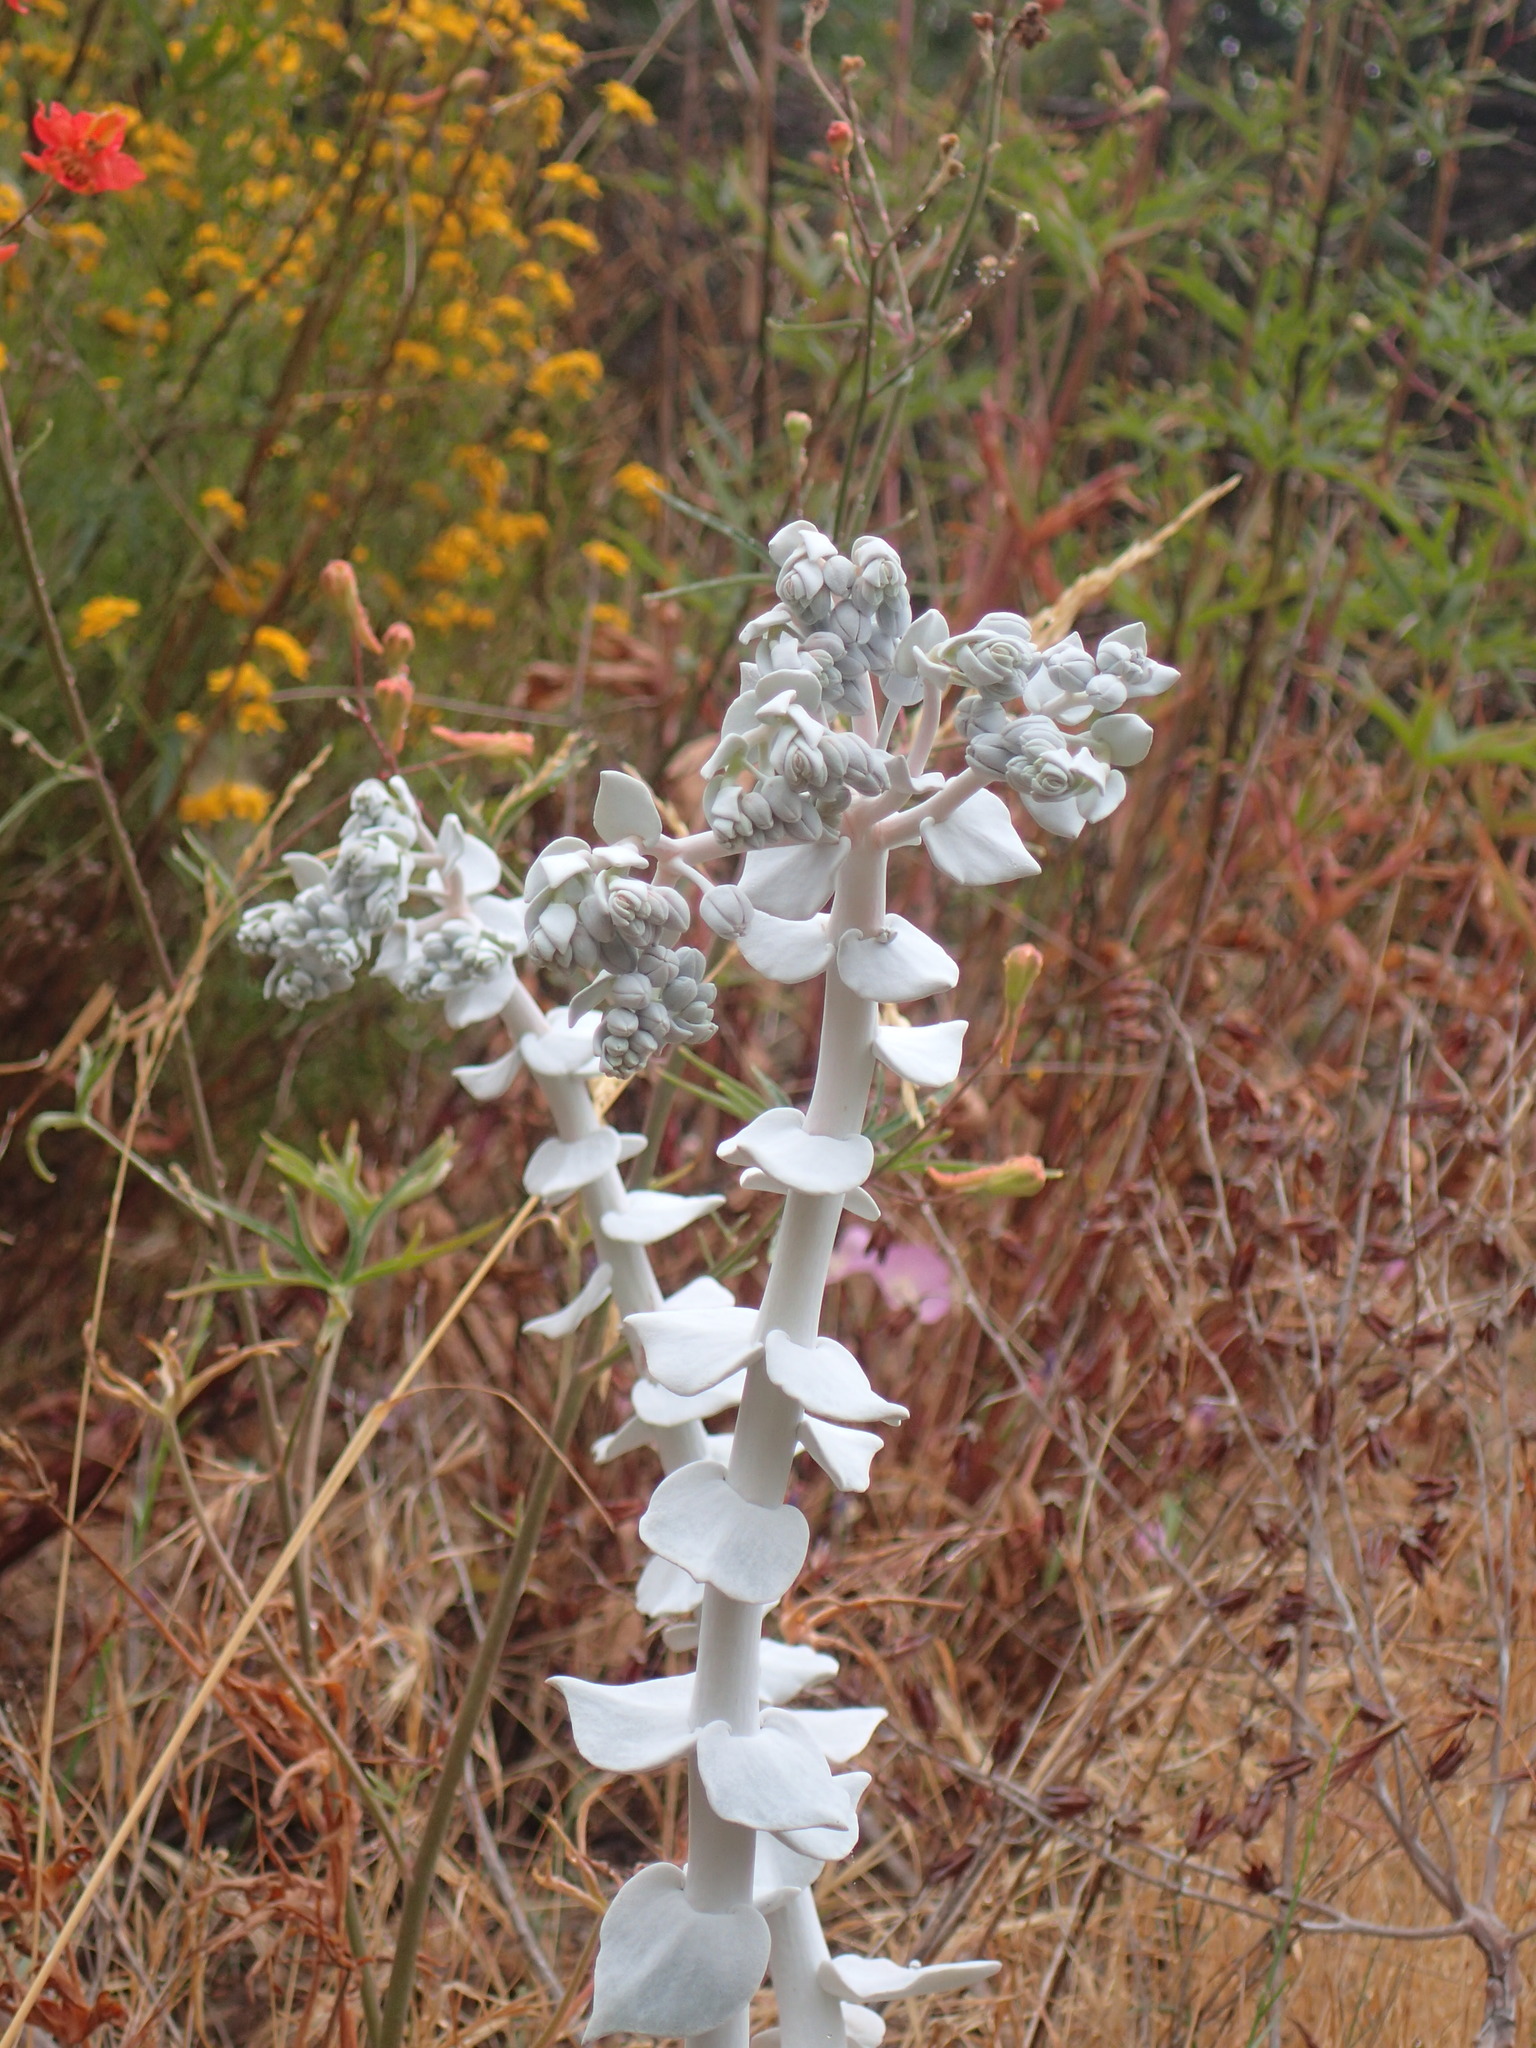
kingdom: Plantae
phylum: Tracheophyta
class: Magnoliopsida
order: Saxifragales
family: Crassulaceae
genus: Dudleya
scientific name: Dudleya pulverulenta
